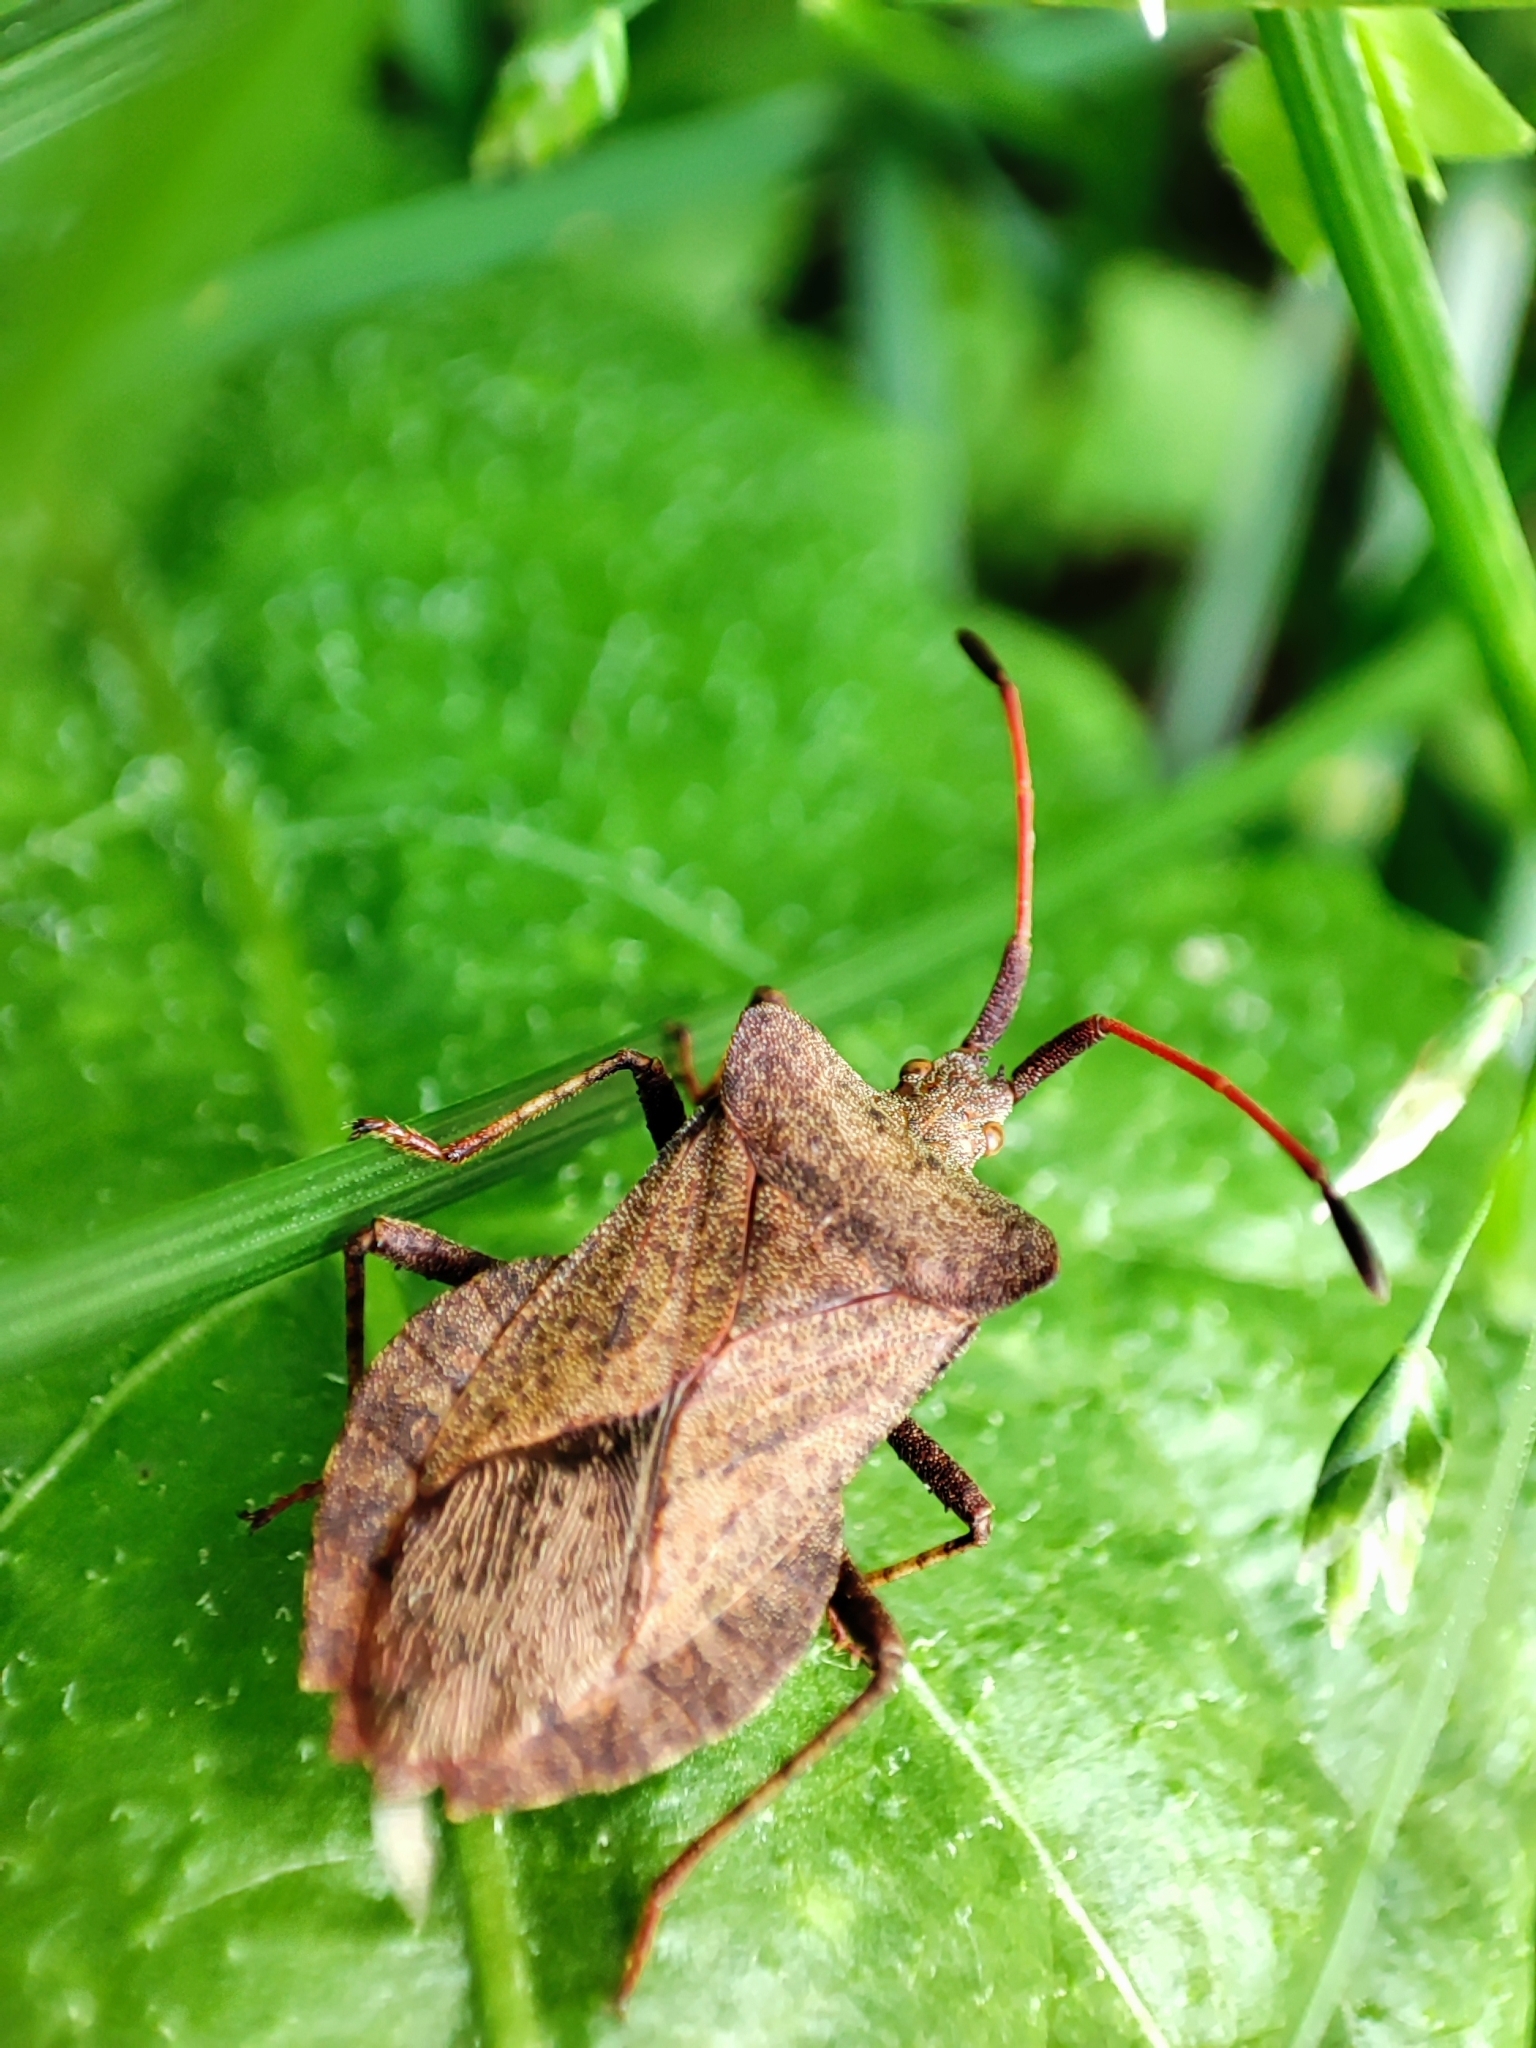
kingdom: Animalia
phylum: Arthropoda
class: Insecta
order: Hemiptera
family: Coreidae
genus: Coreus
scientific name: Coreus marginatus
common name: Dock bug
